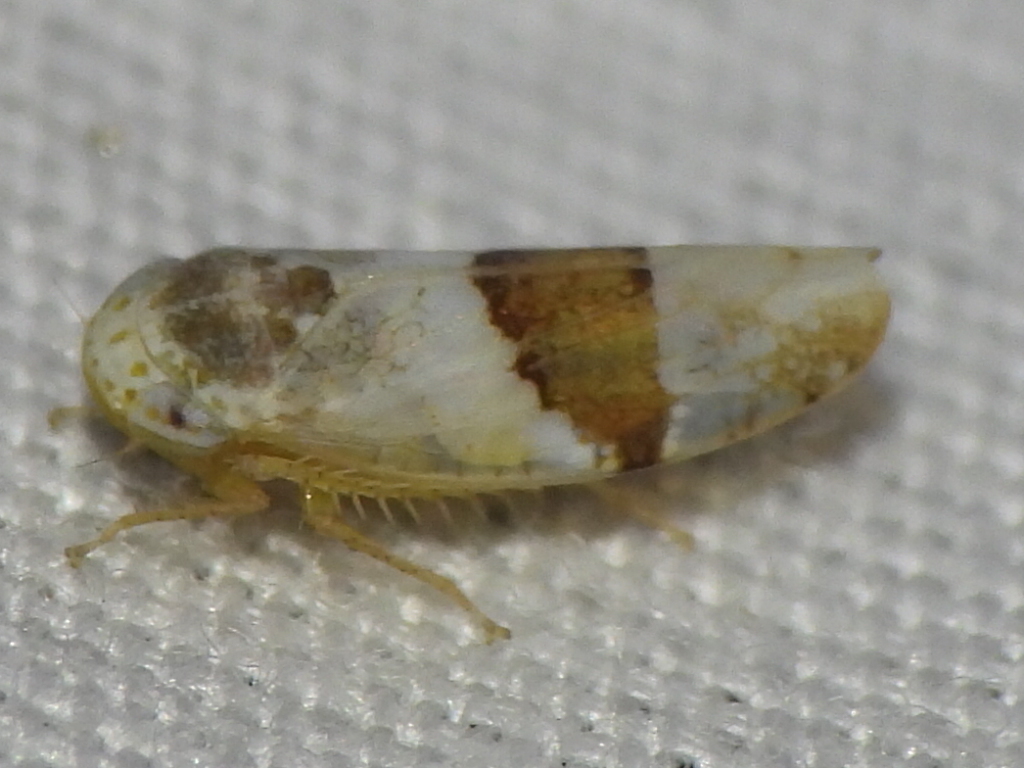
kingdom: Animalia
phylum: Arthropoda
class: Insecta
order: Hemiptera
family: Cicadellidae
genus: Norvellina
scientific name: Norvellina seminuda
